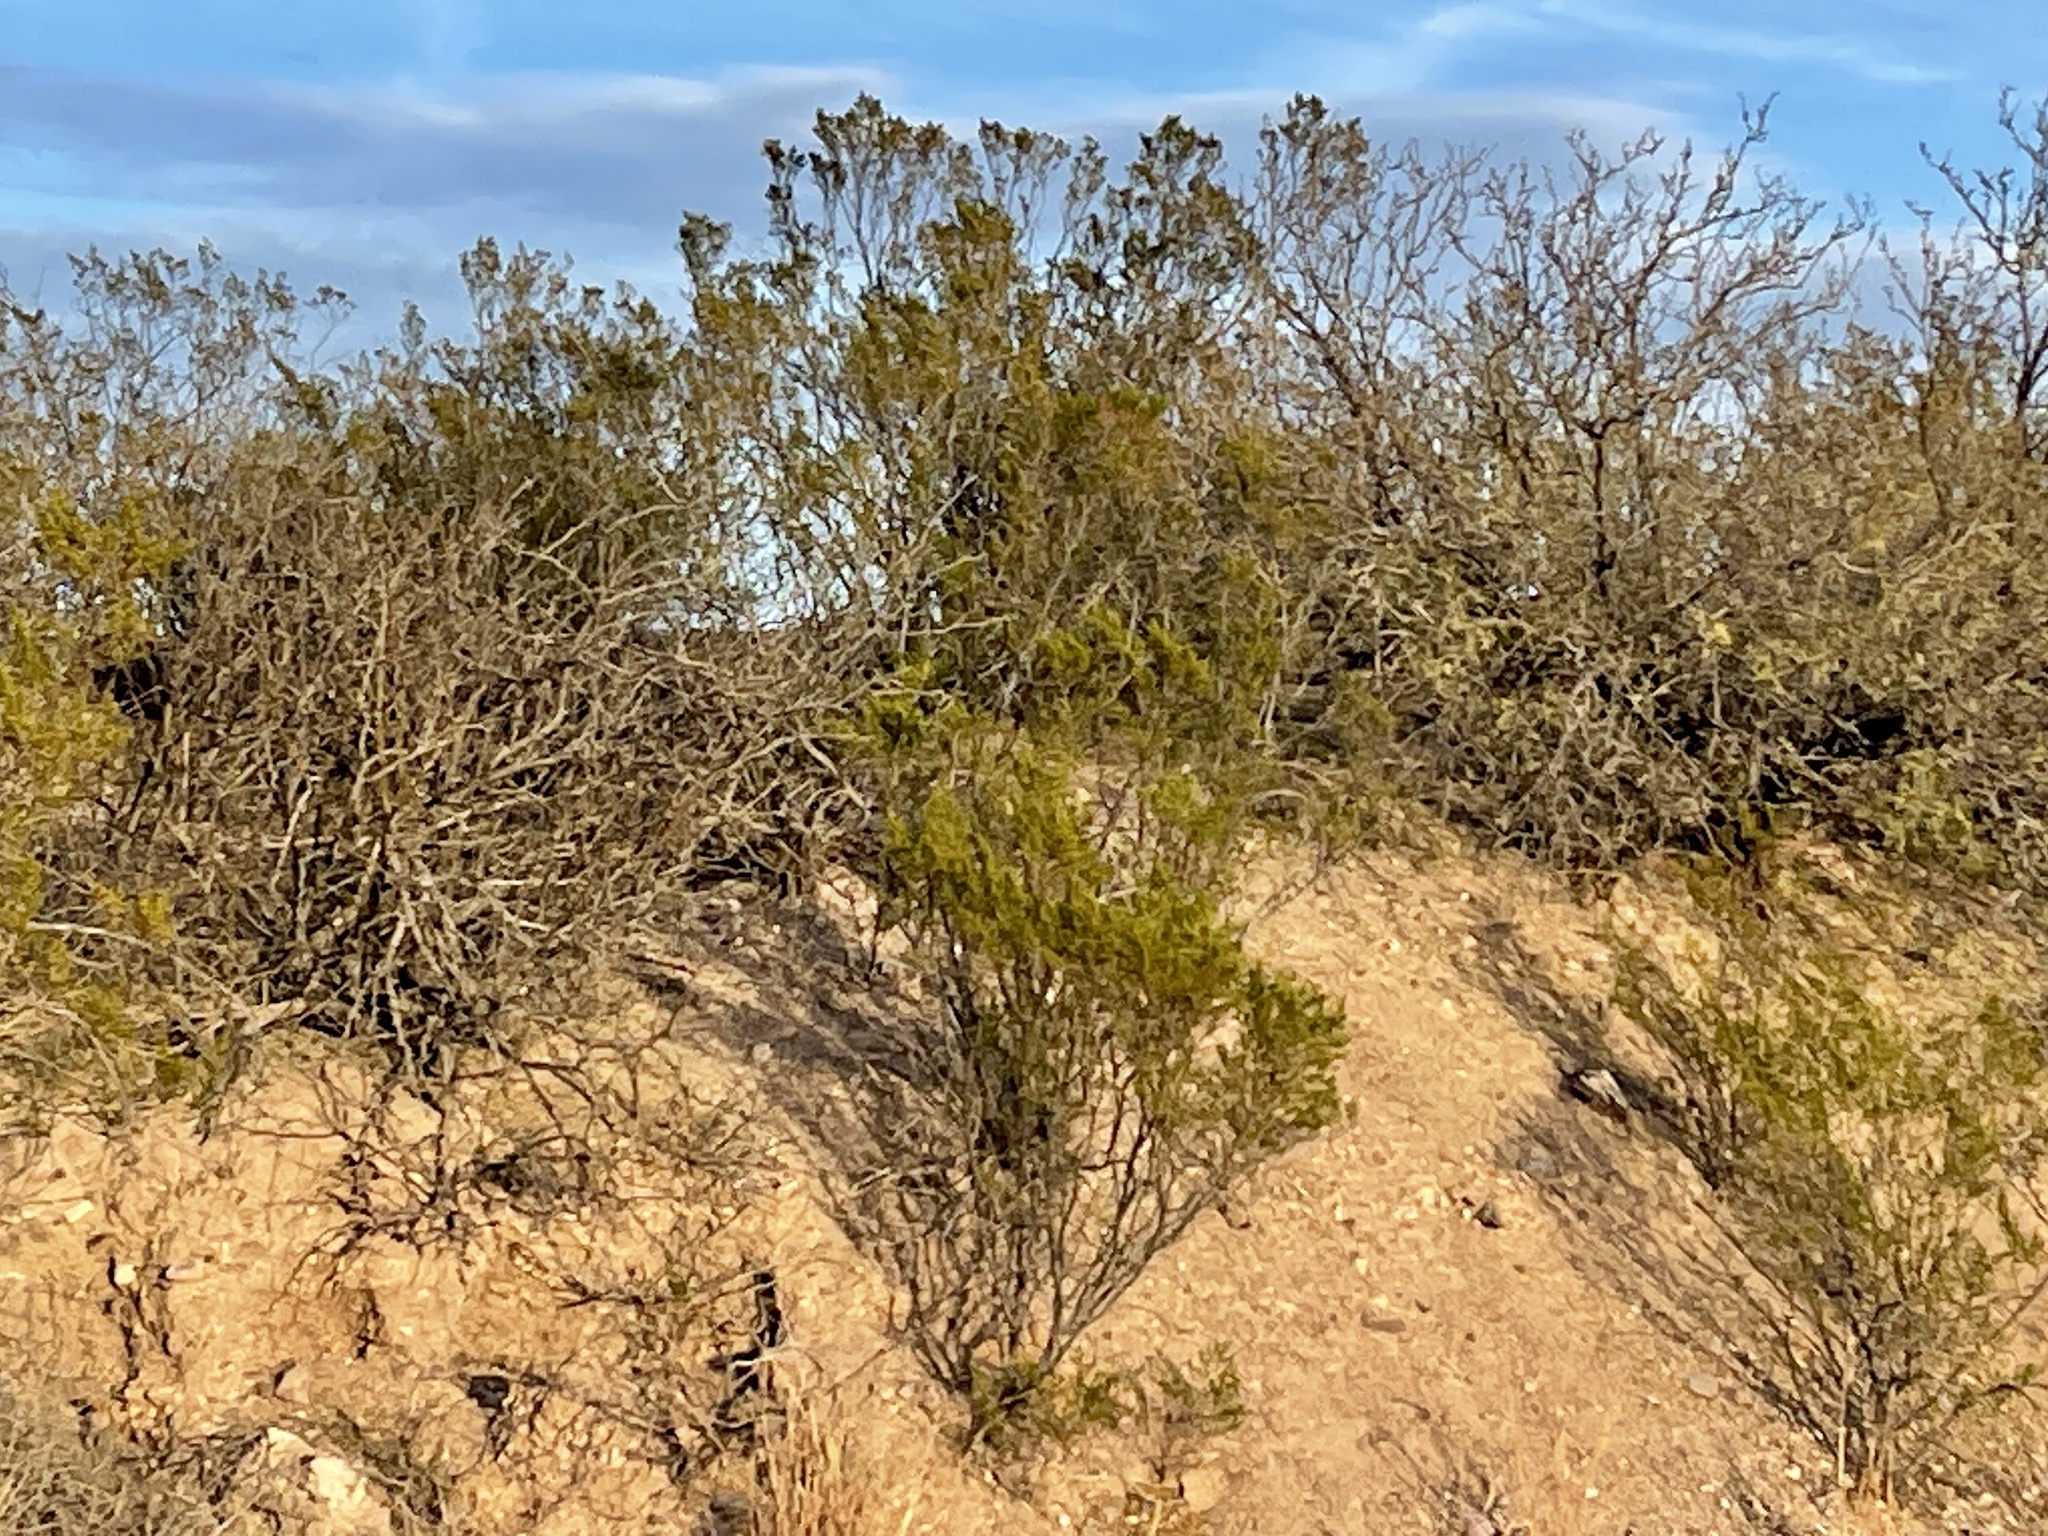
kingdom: Plantae
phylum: Tracheophyta
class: Magnoliopsida
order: Zygophyllales
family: Zygophyllaceae
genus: Larrea
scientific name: Larrea tridentata
